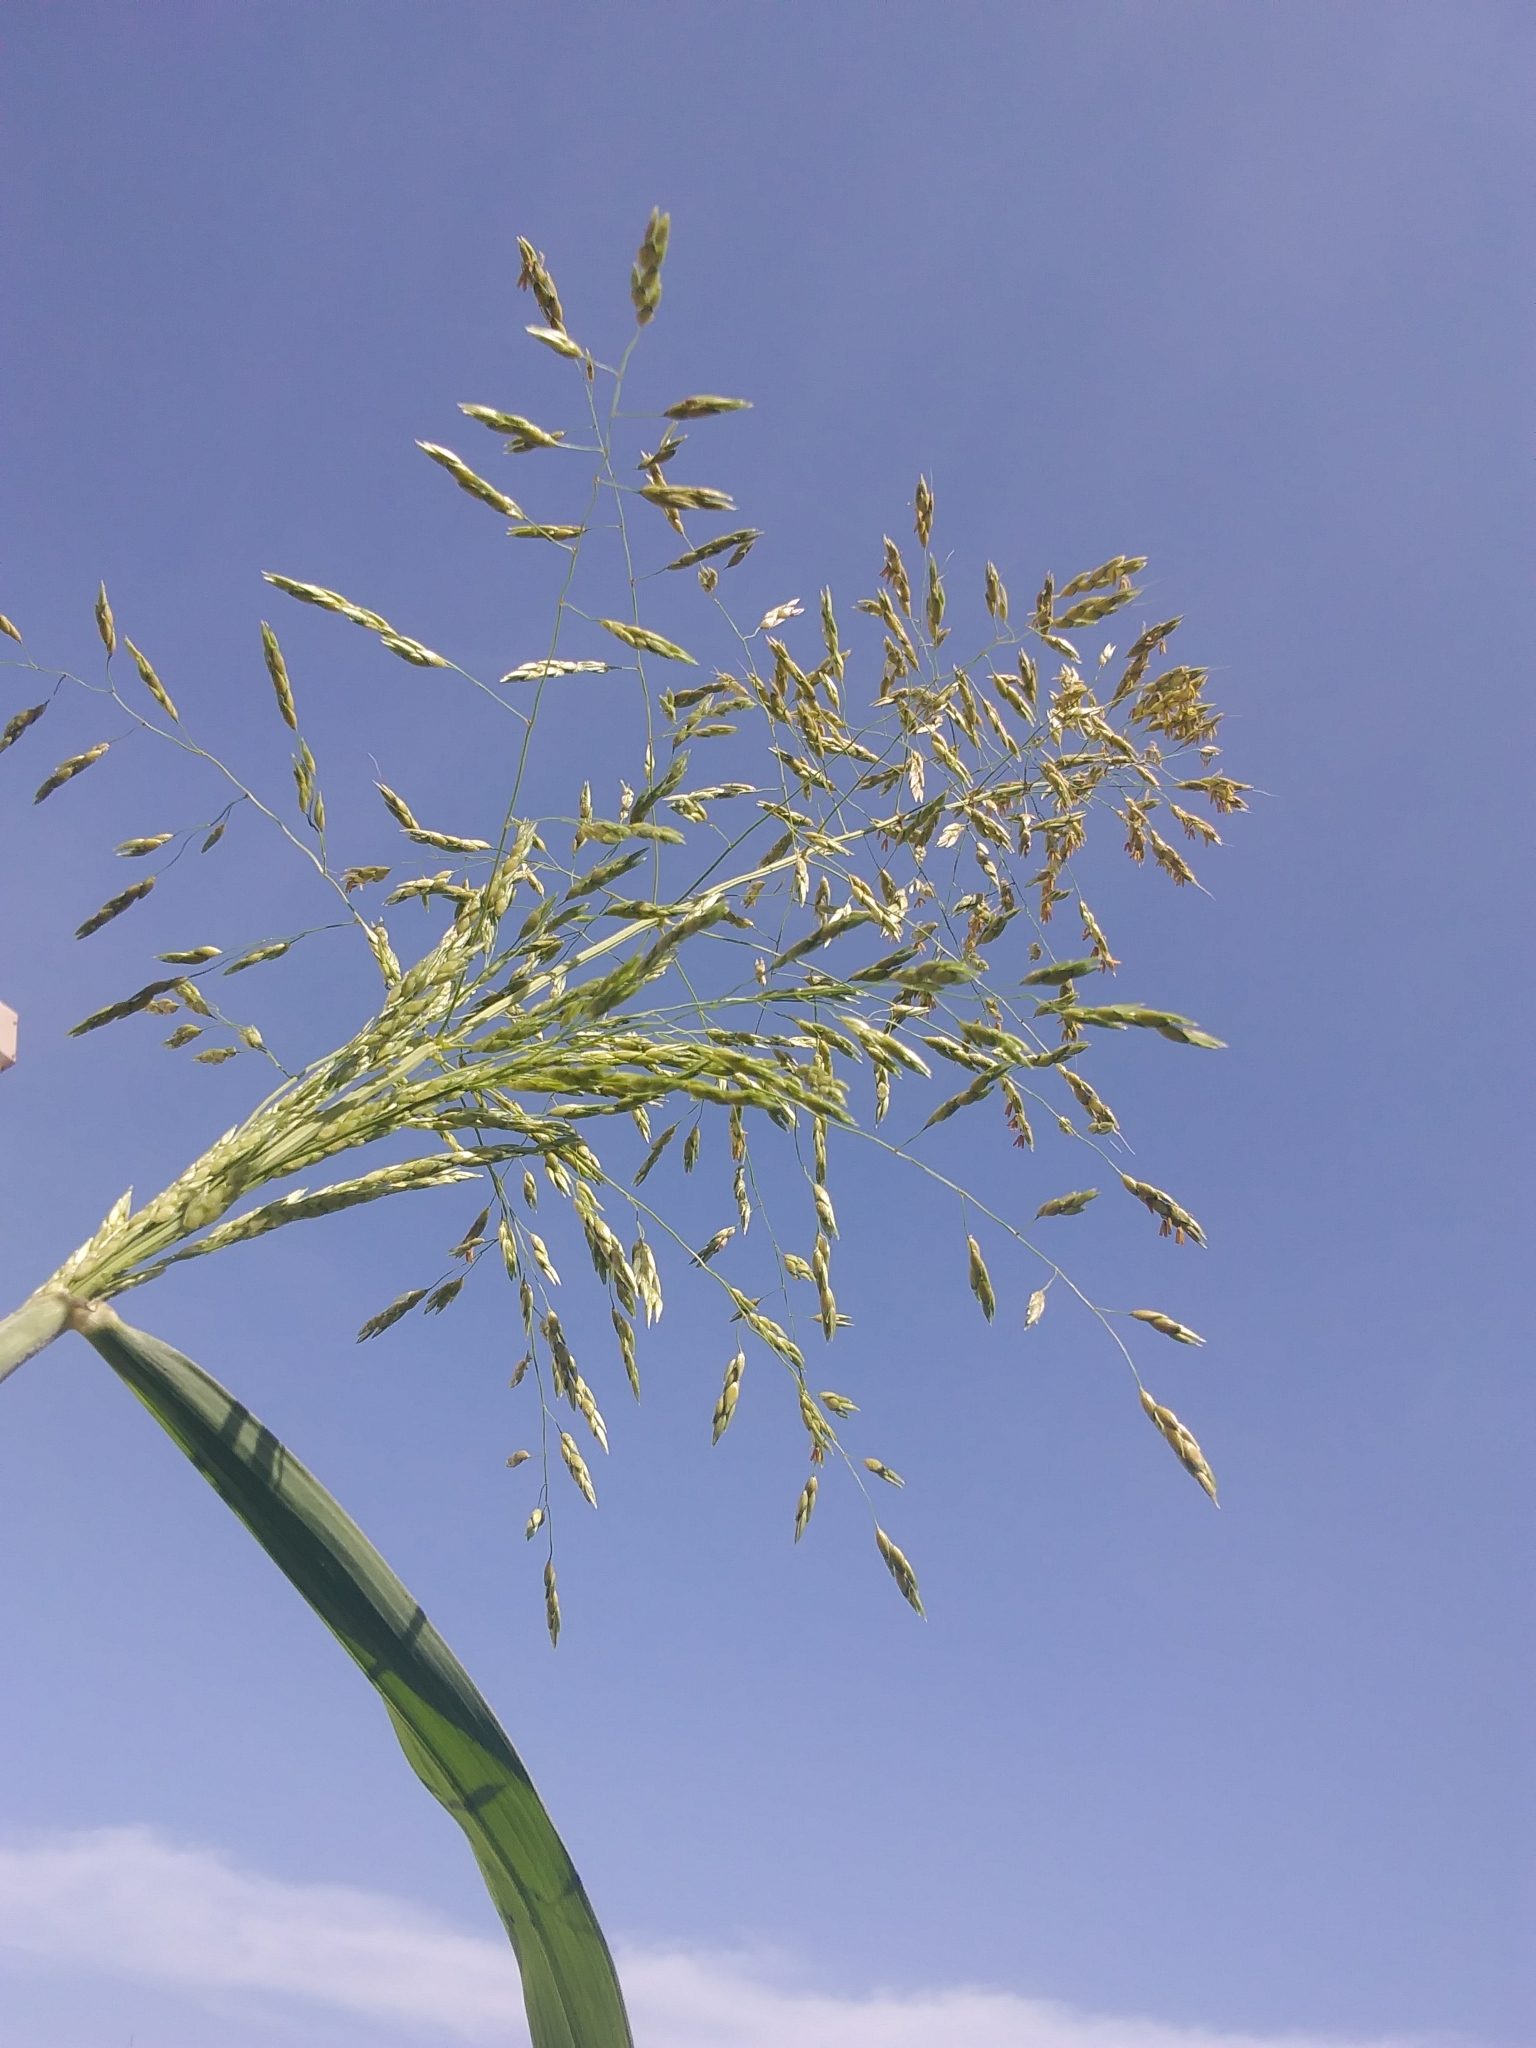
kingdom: Plantae
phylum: Tracheophyta
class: Liliopsida
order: Poales
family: Poaceae
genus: Sorghum
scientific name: Sorghum halepense
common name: Johnson-grass
